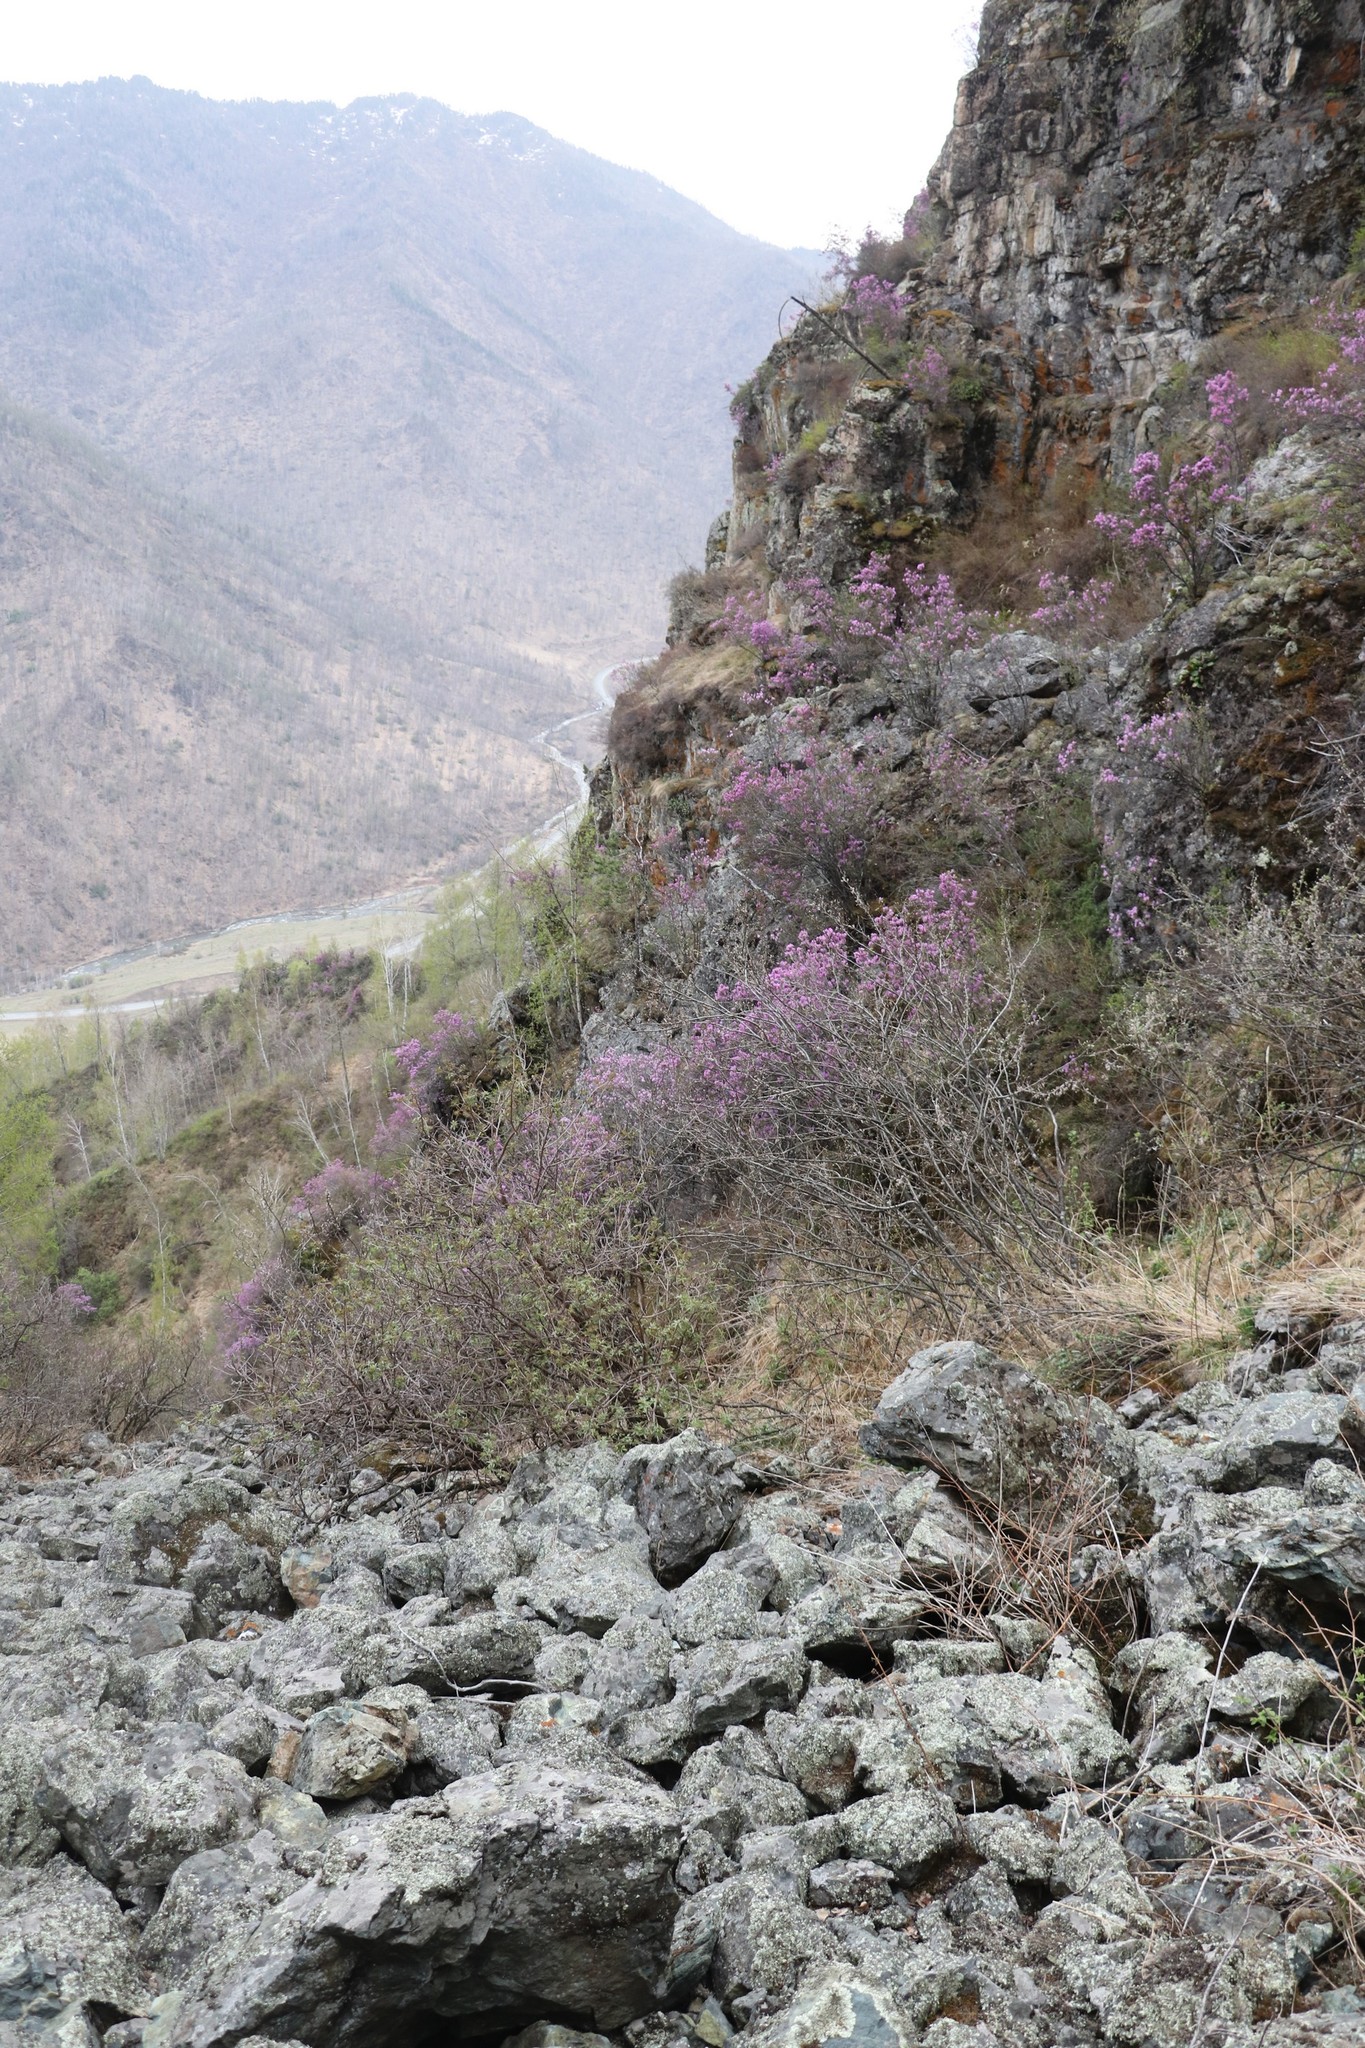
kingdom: Plantae
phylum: Tracheophyta
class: Magnoliopsida
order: Ericales
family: Ericaceae
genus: Rhododendron
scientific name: Rhododendron dauricum
